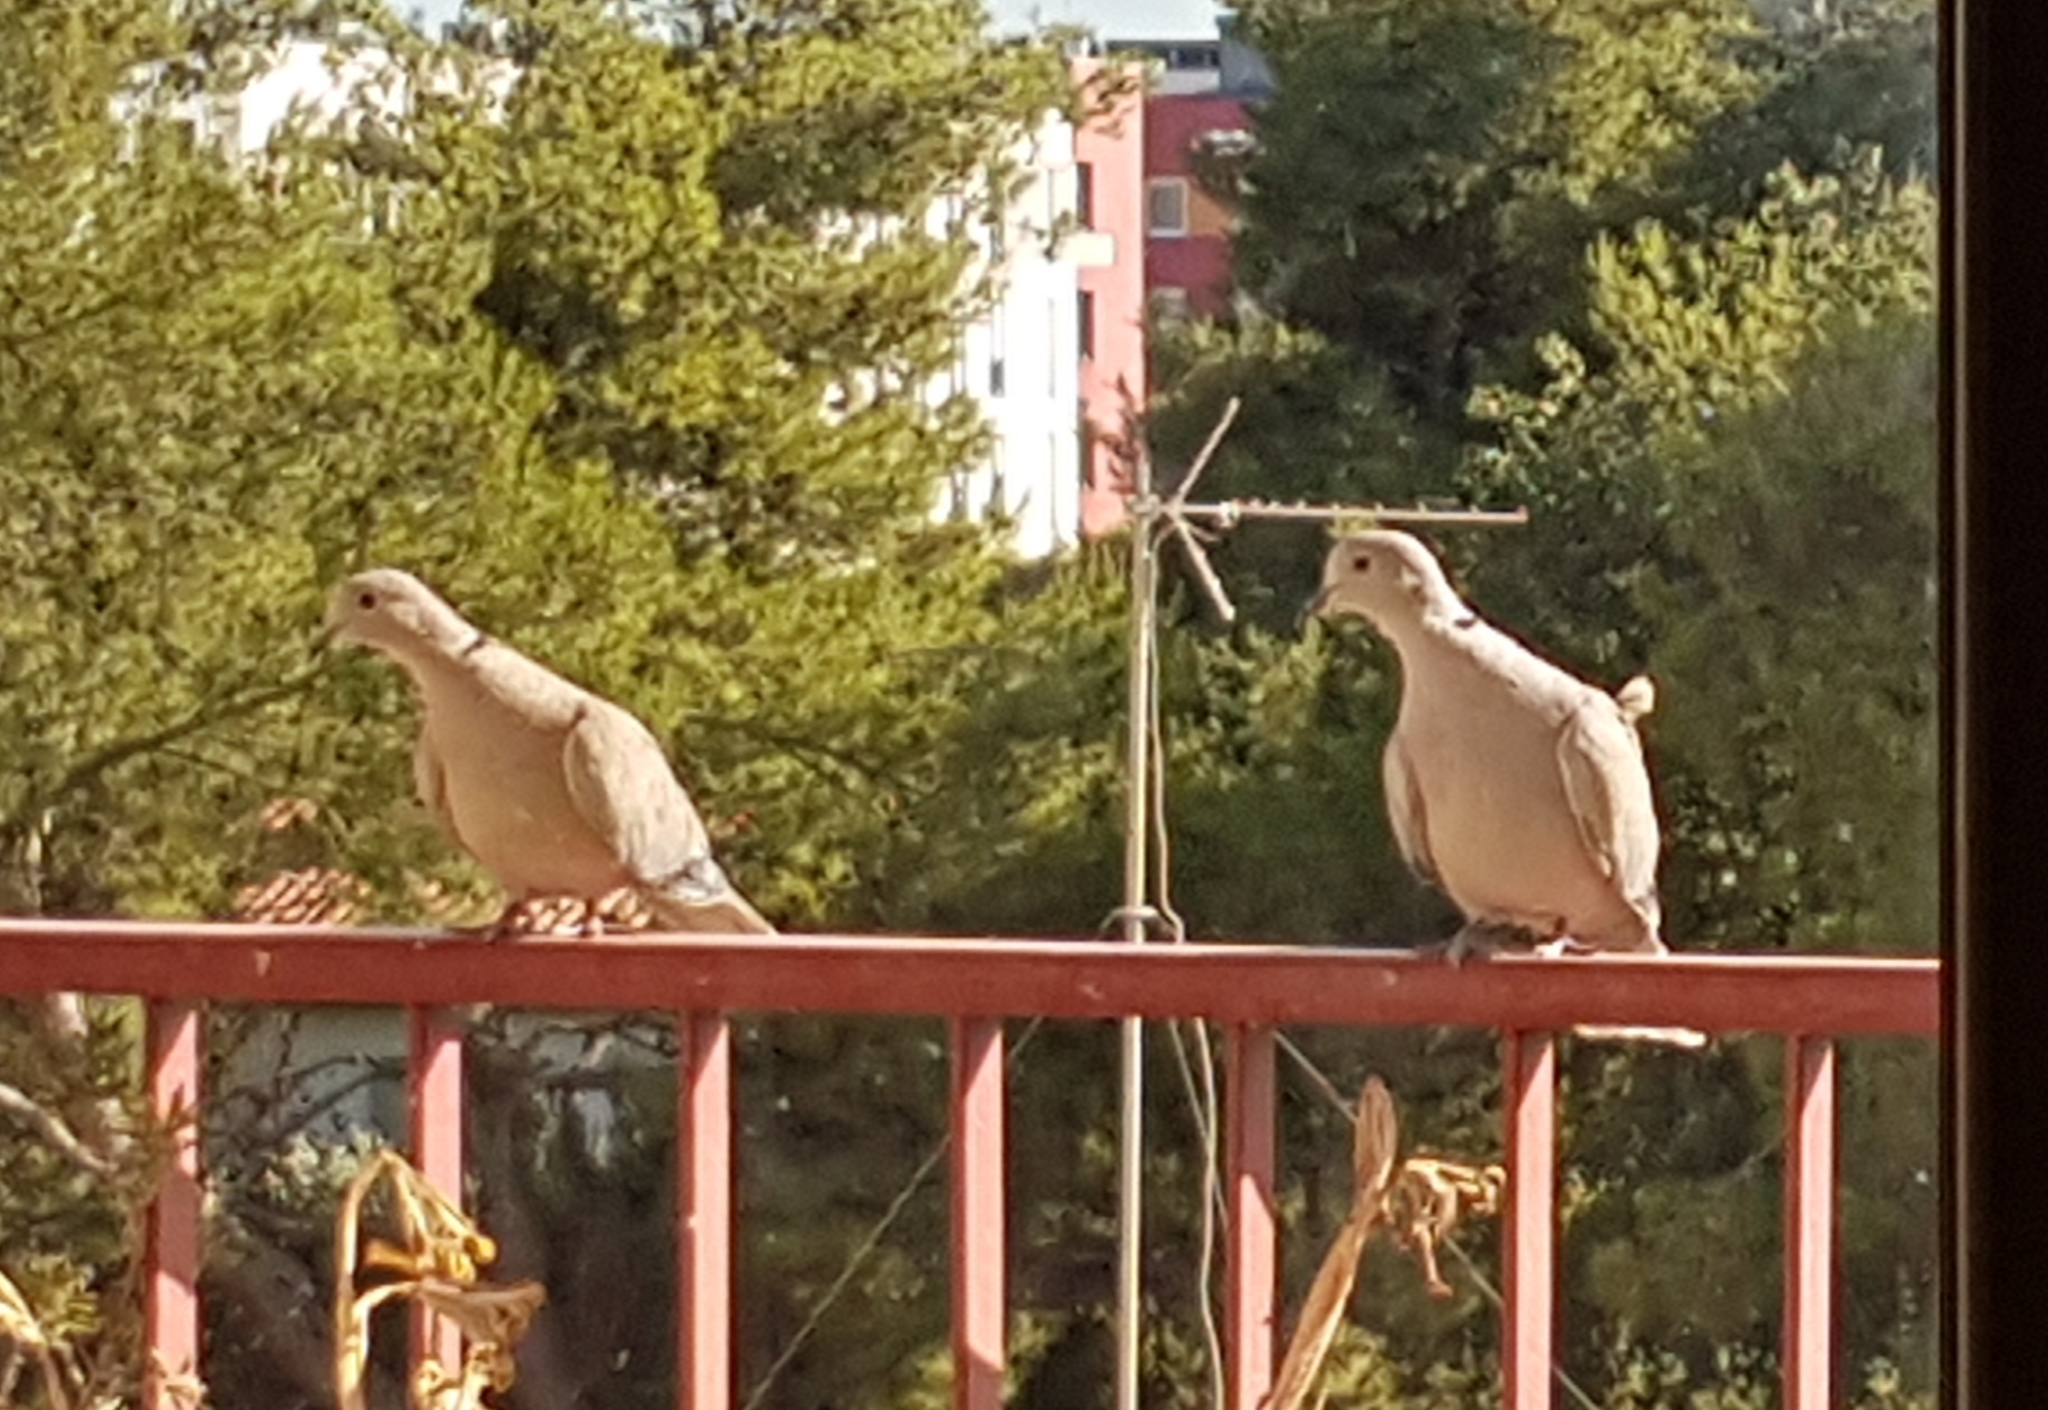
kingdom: Animalia
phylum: Chordata
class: Aves
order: Columbiformes
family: Columbidae
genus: Streptopelia
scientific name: Streptopelia decaocto
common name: Eurasian collared dove
